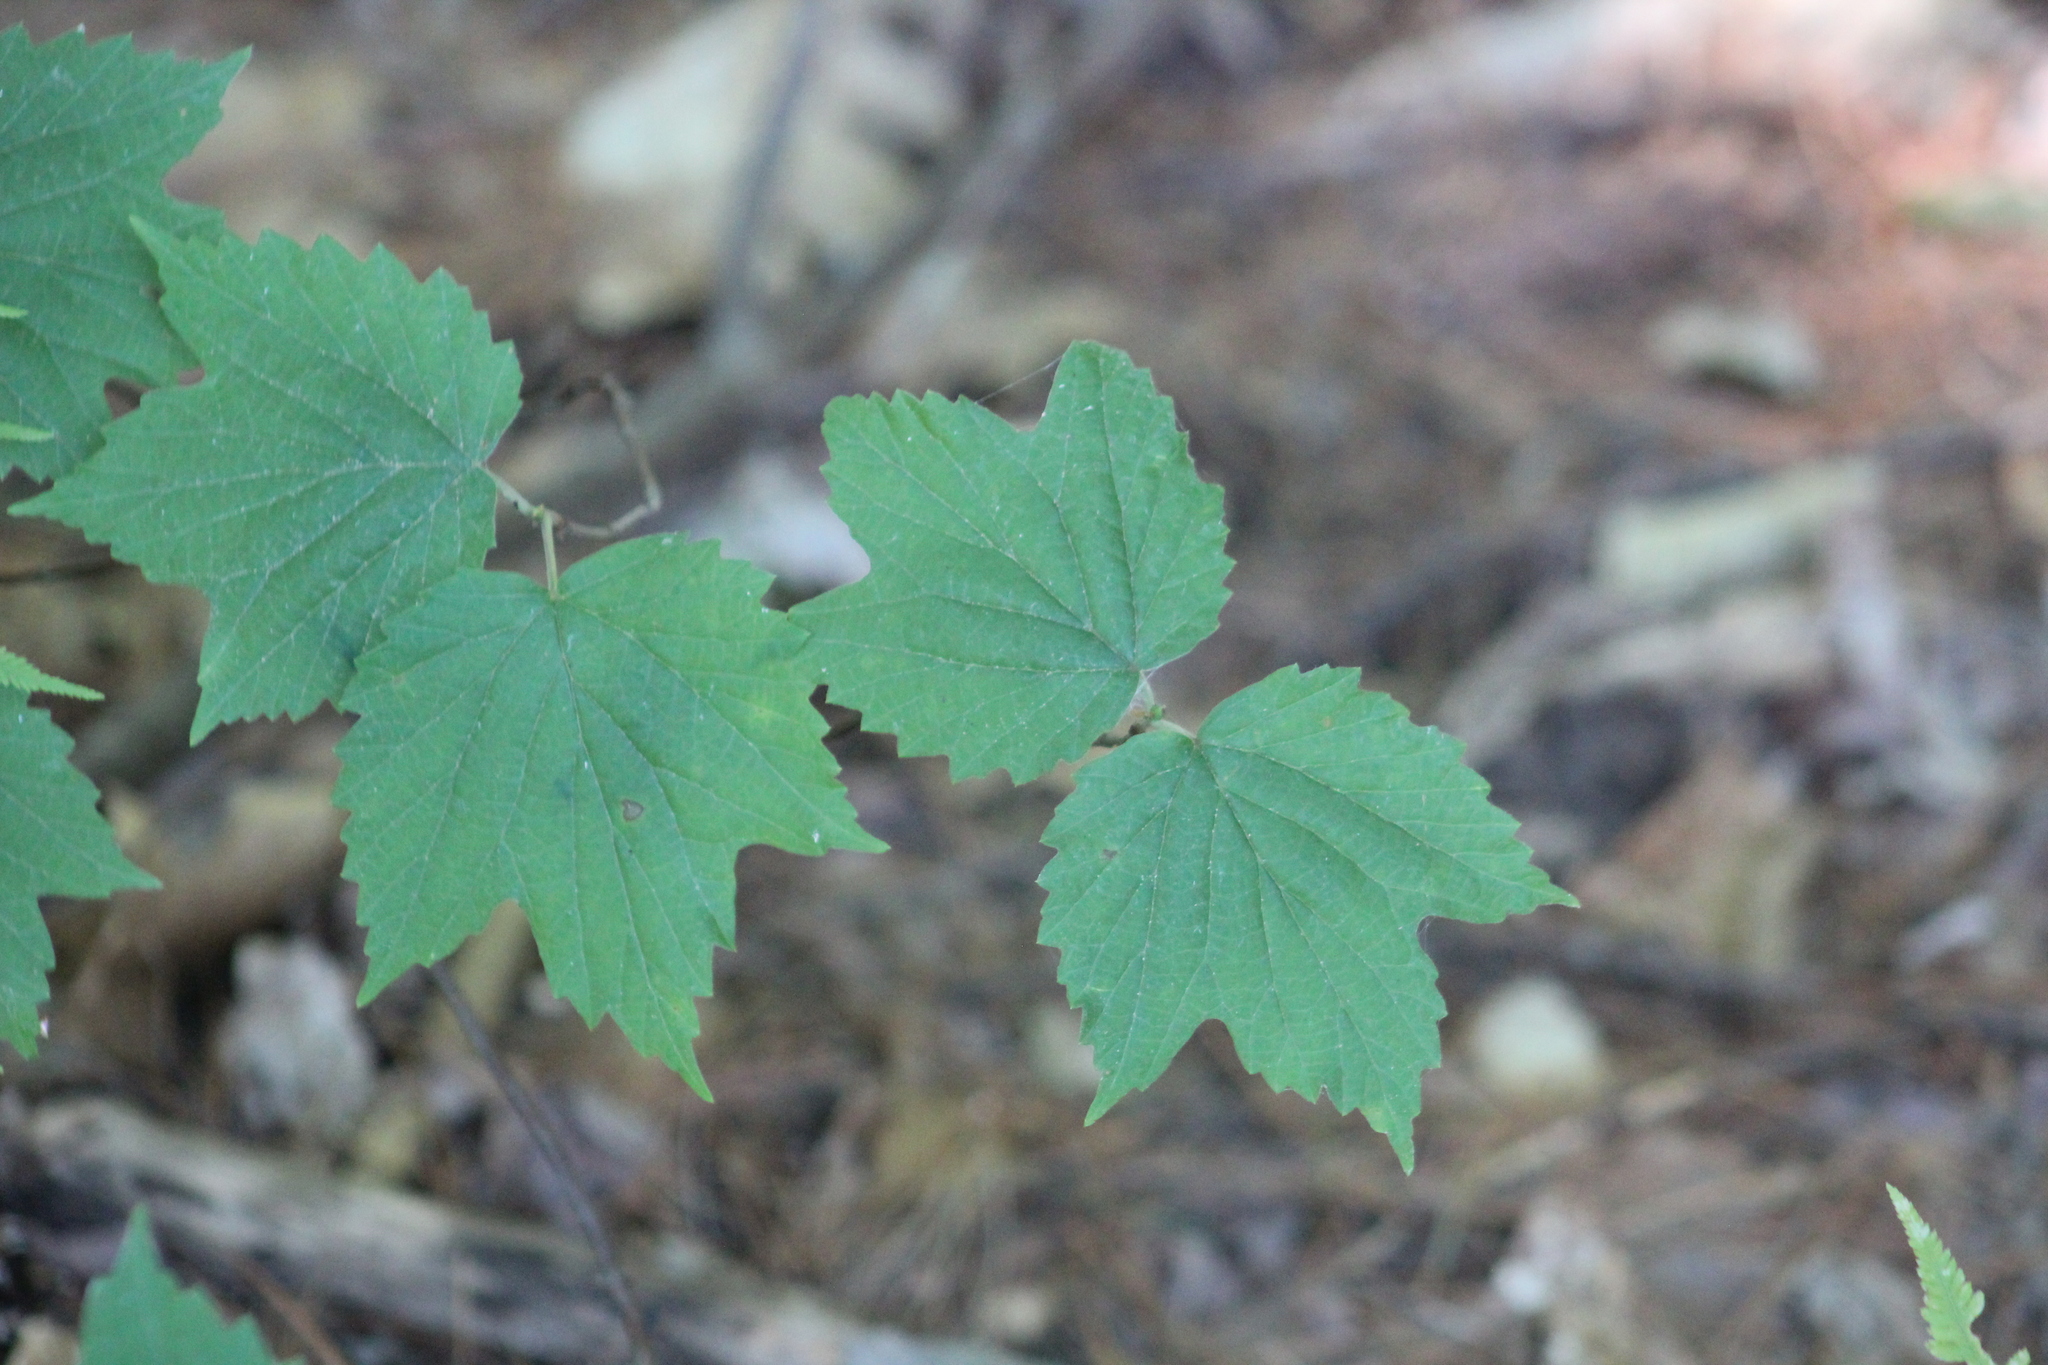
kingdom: Plantae
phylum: Tracheophyta
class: Magnoliopsida
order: Dipsacales
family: Viburnaceae
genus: Viburnum
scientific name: Viburnum acerifolium
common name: Dockmackie
